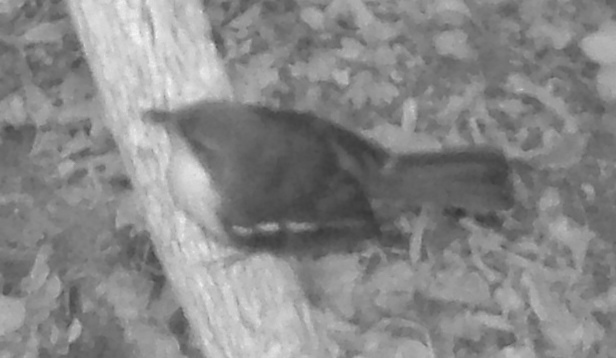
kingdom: Animalia
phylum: Chordata
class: Aves
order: Passeriformes
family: Malaconotidae
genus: Laniarius
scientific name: Laniarius ferrugineus
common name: Southern boubou
